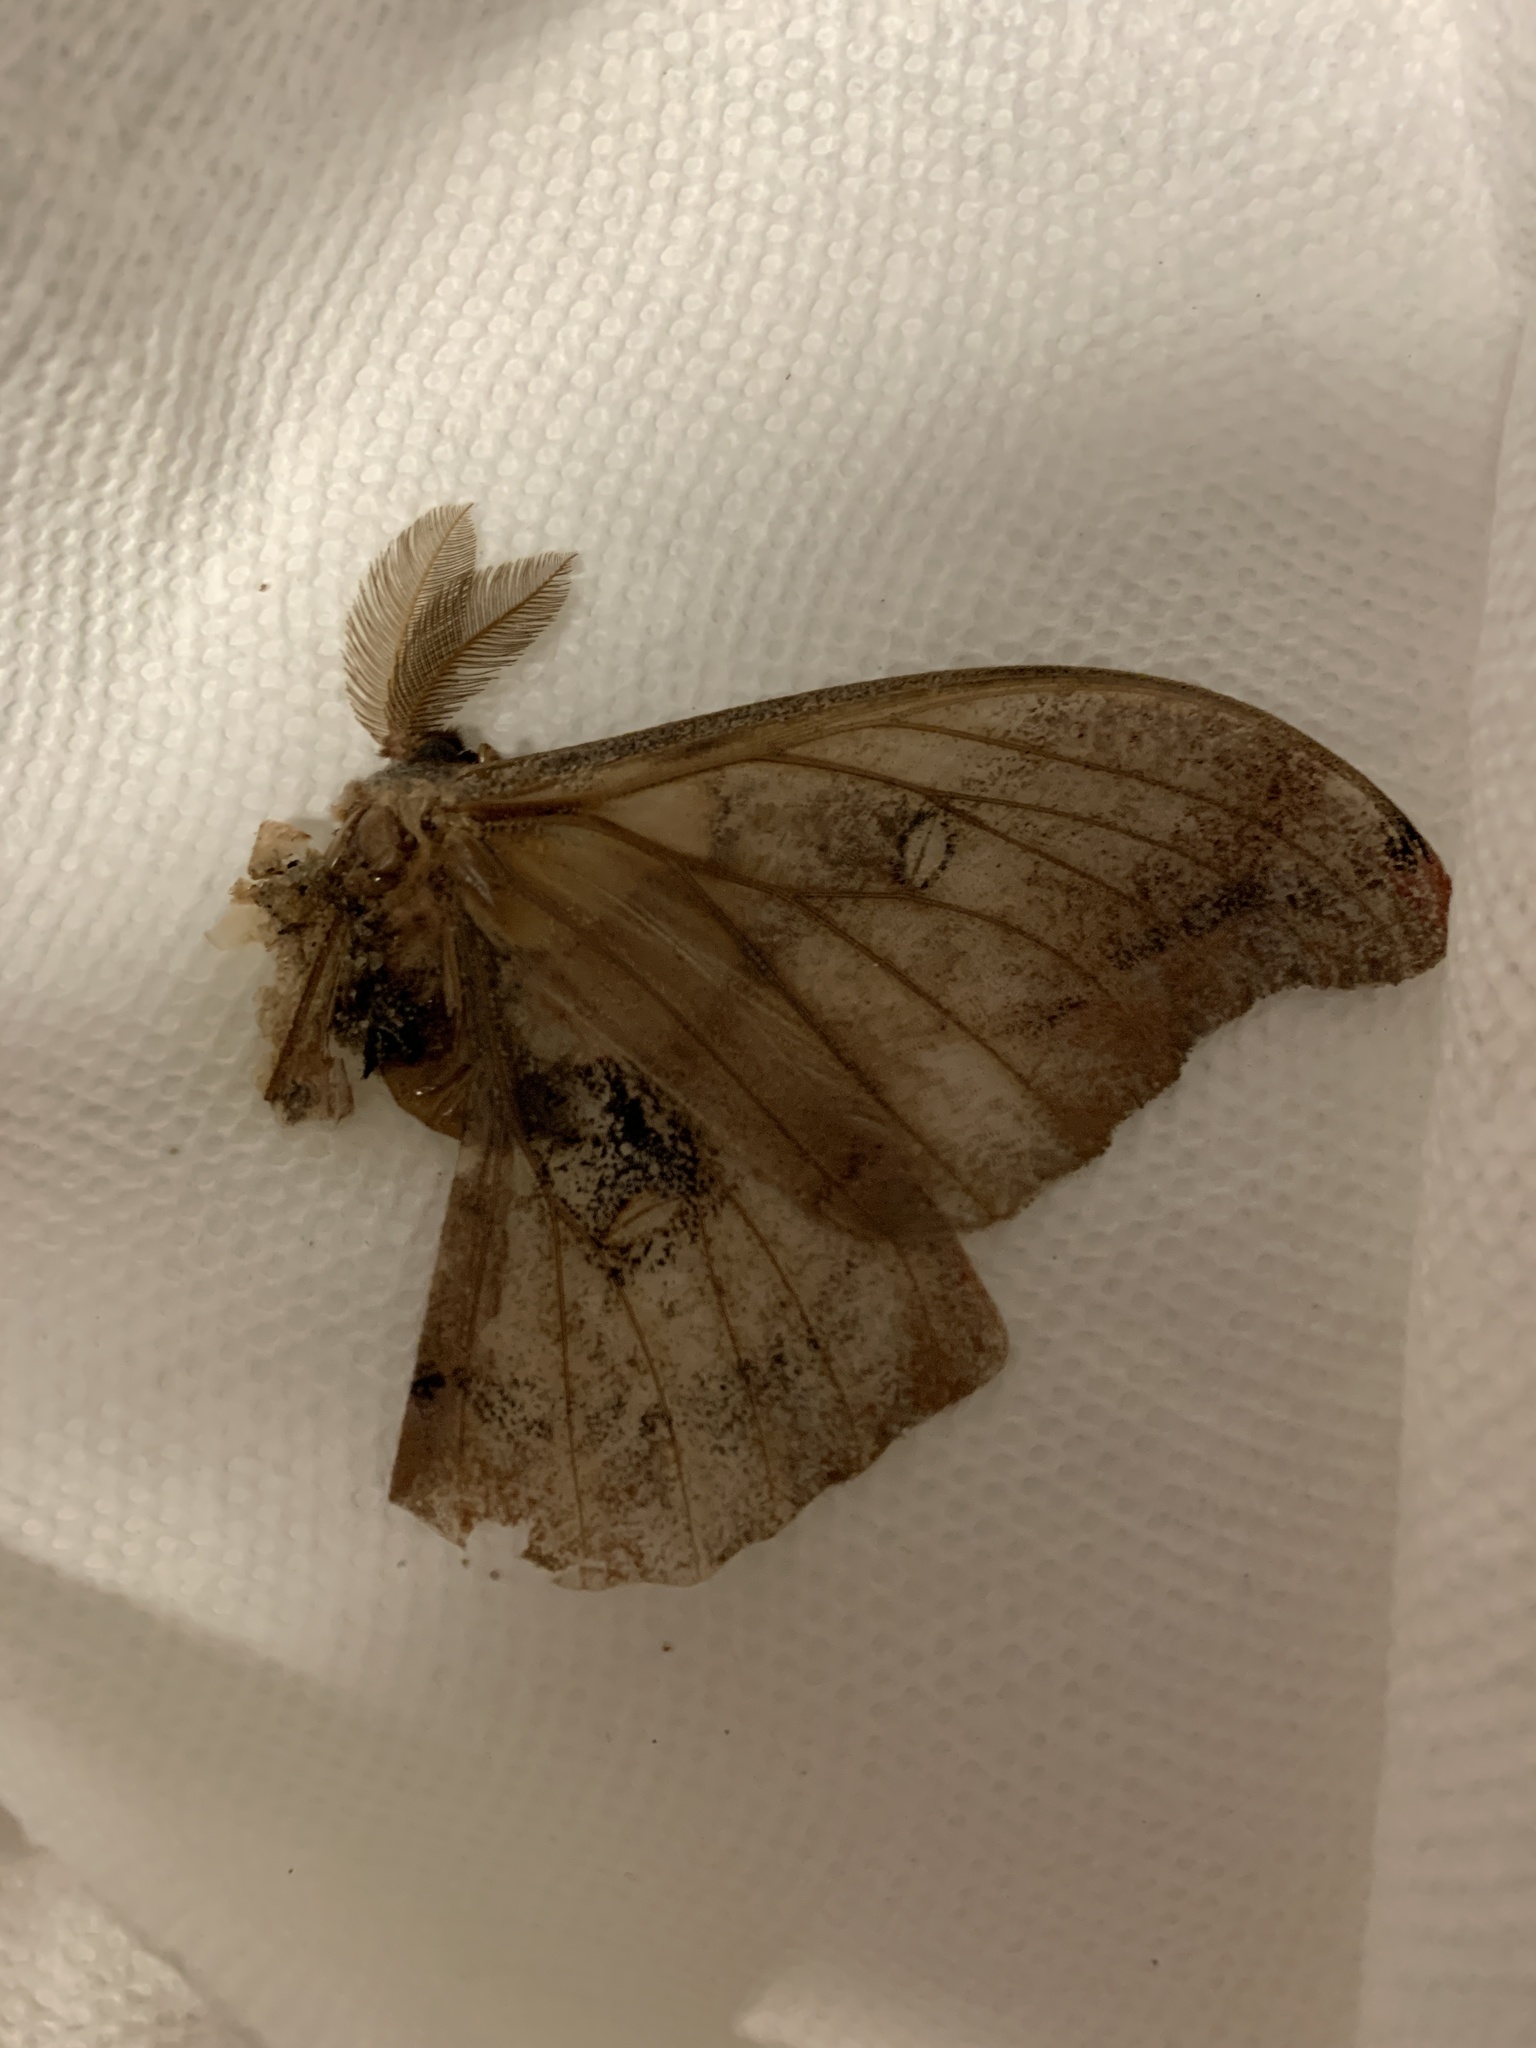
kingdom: Animalia
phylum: Arthropoda
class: Insecta
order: Lepidoptera
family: Saturniidae
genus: Antheraea
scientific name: Antheraea polyphemus
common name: Polyphemus moth
